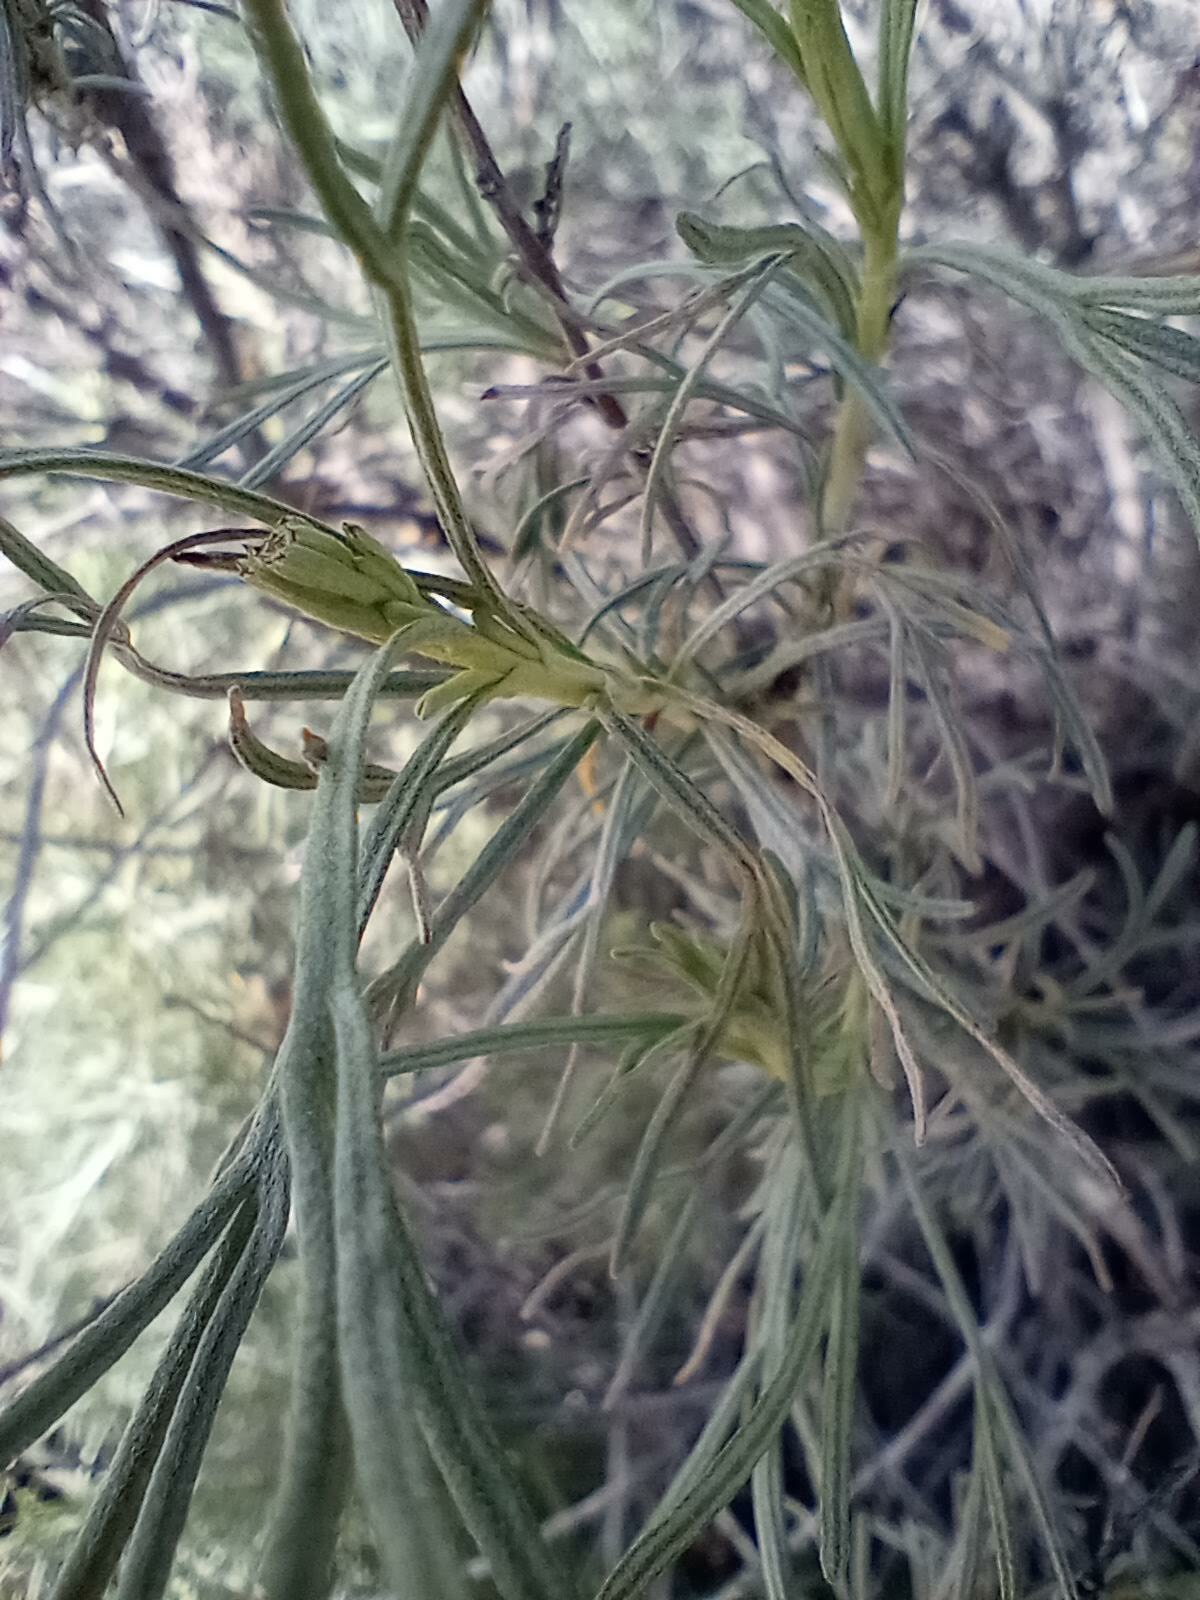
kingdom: Plantae
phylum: Tracheophyta
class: Magnoliopsida
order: Asterales
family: Asteraceae
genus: Artemisia
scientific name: Artemisia californica
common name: California sagebrush
